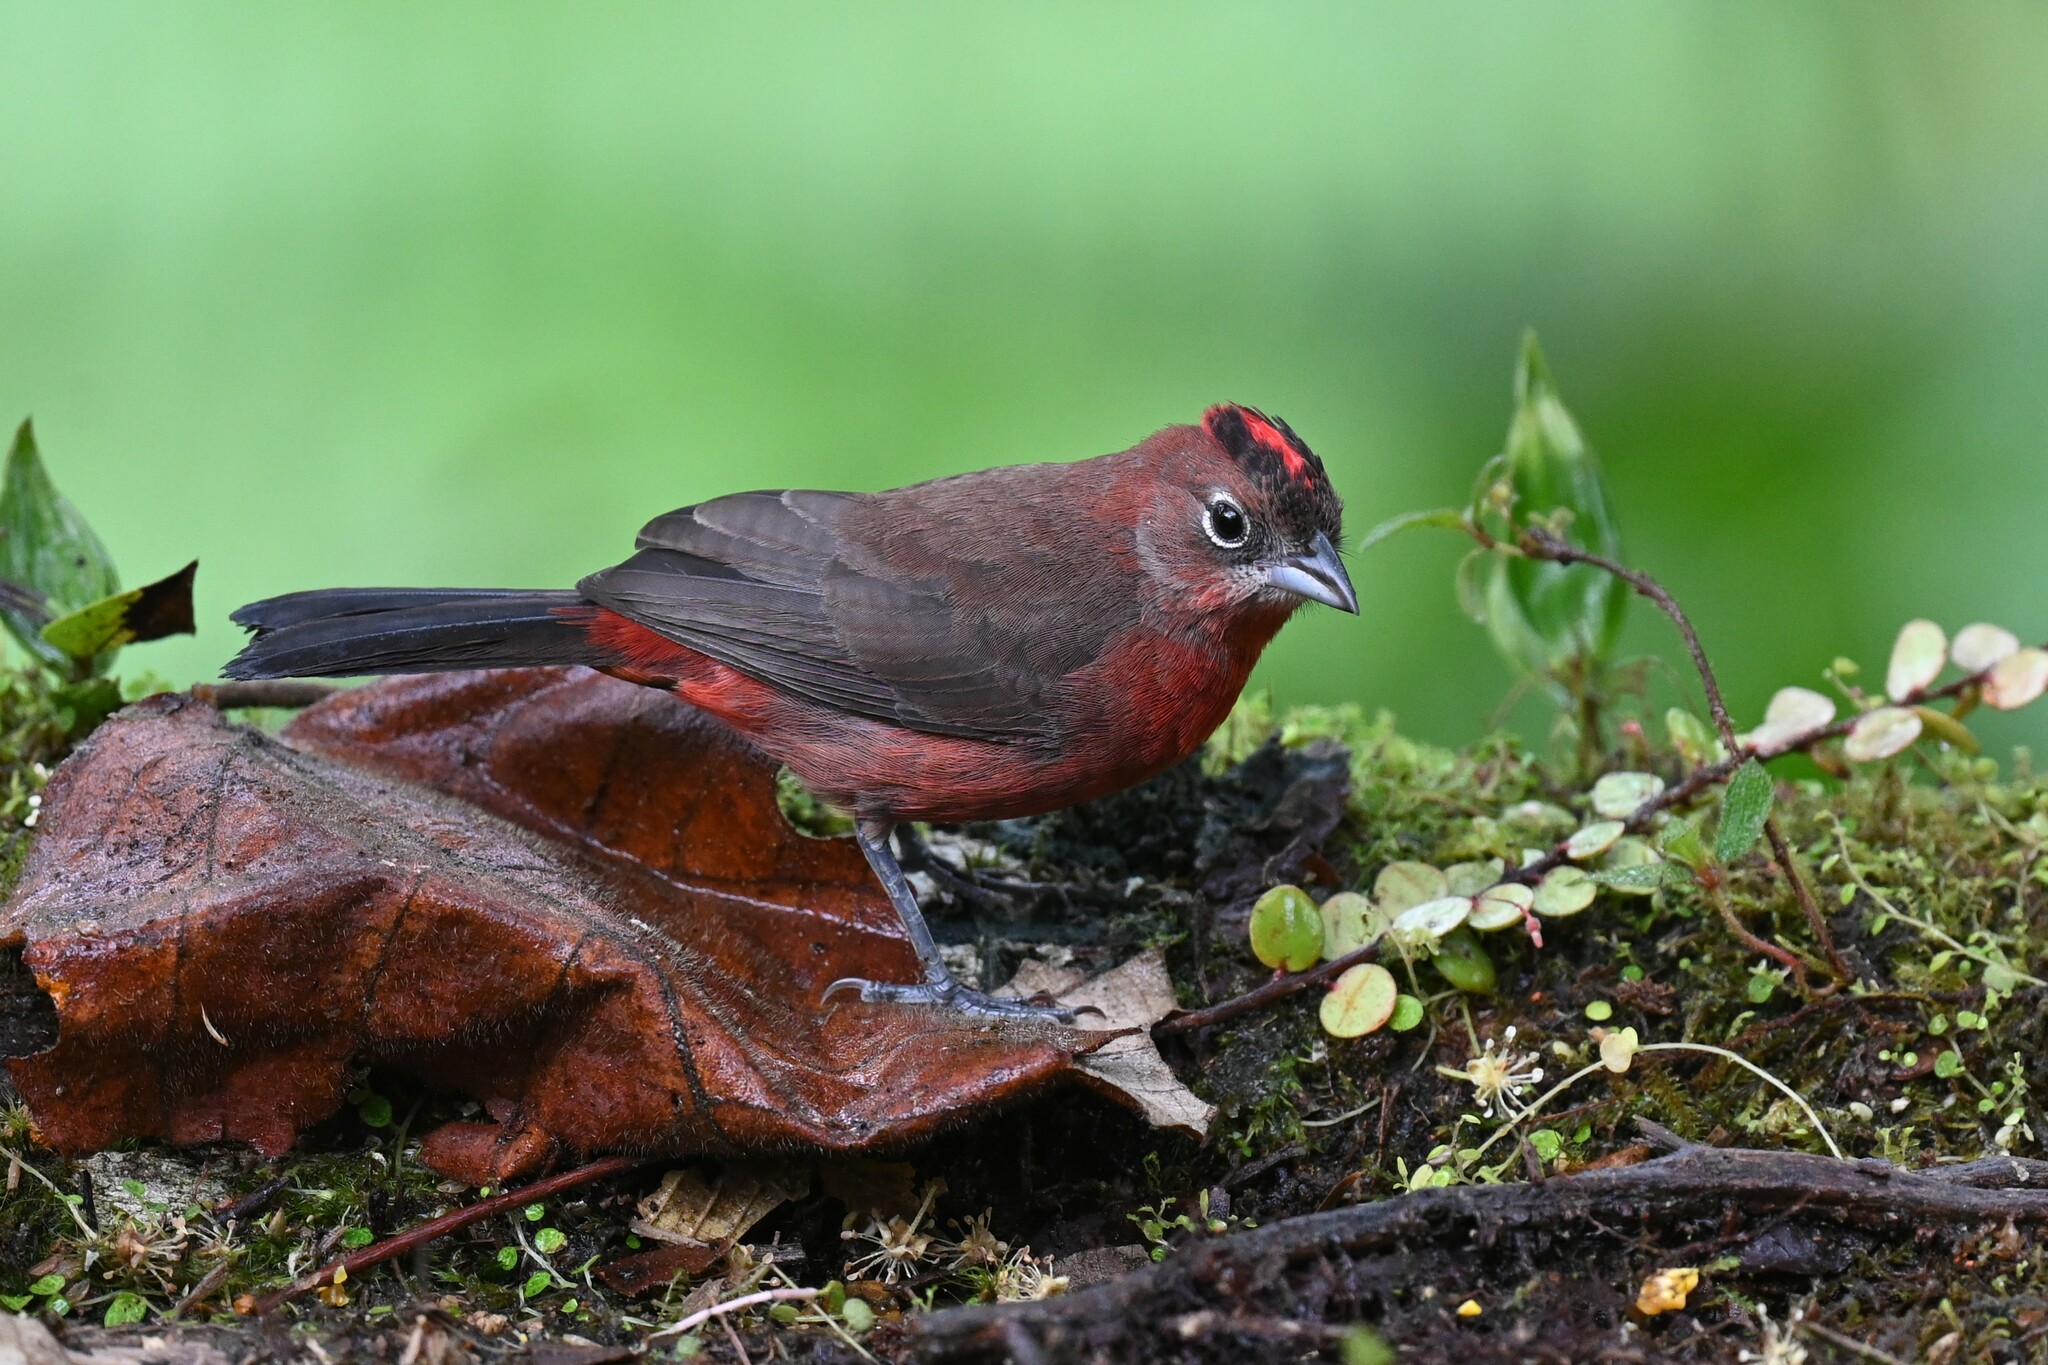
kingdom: Animalia
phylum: Chordata
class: Aves
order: Passeriformes
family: Thraupidae
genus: Coryphospingus
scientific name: Coryphospingus cucullatus
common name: Red pileated finch
